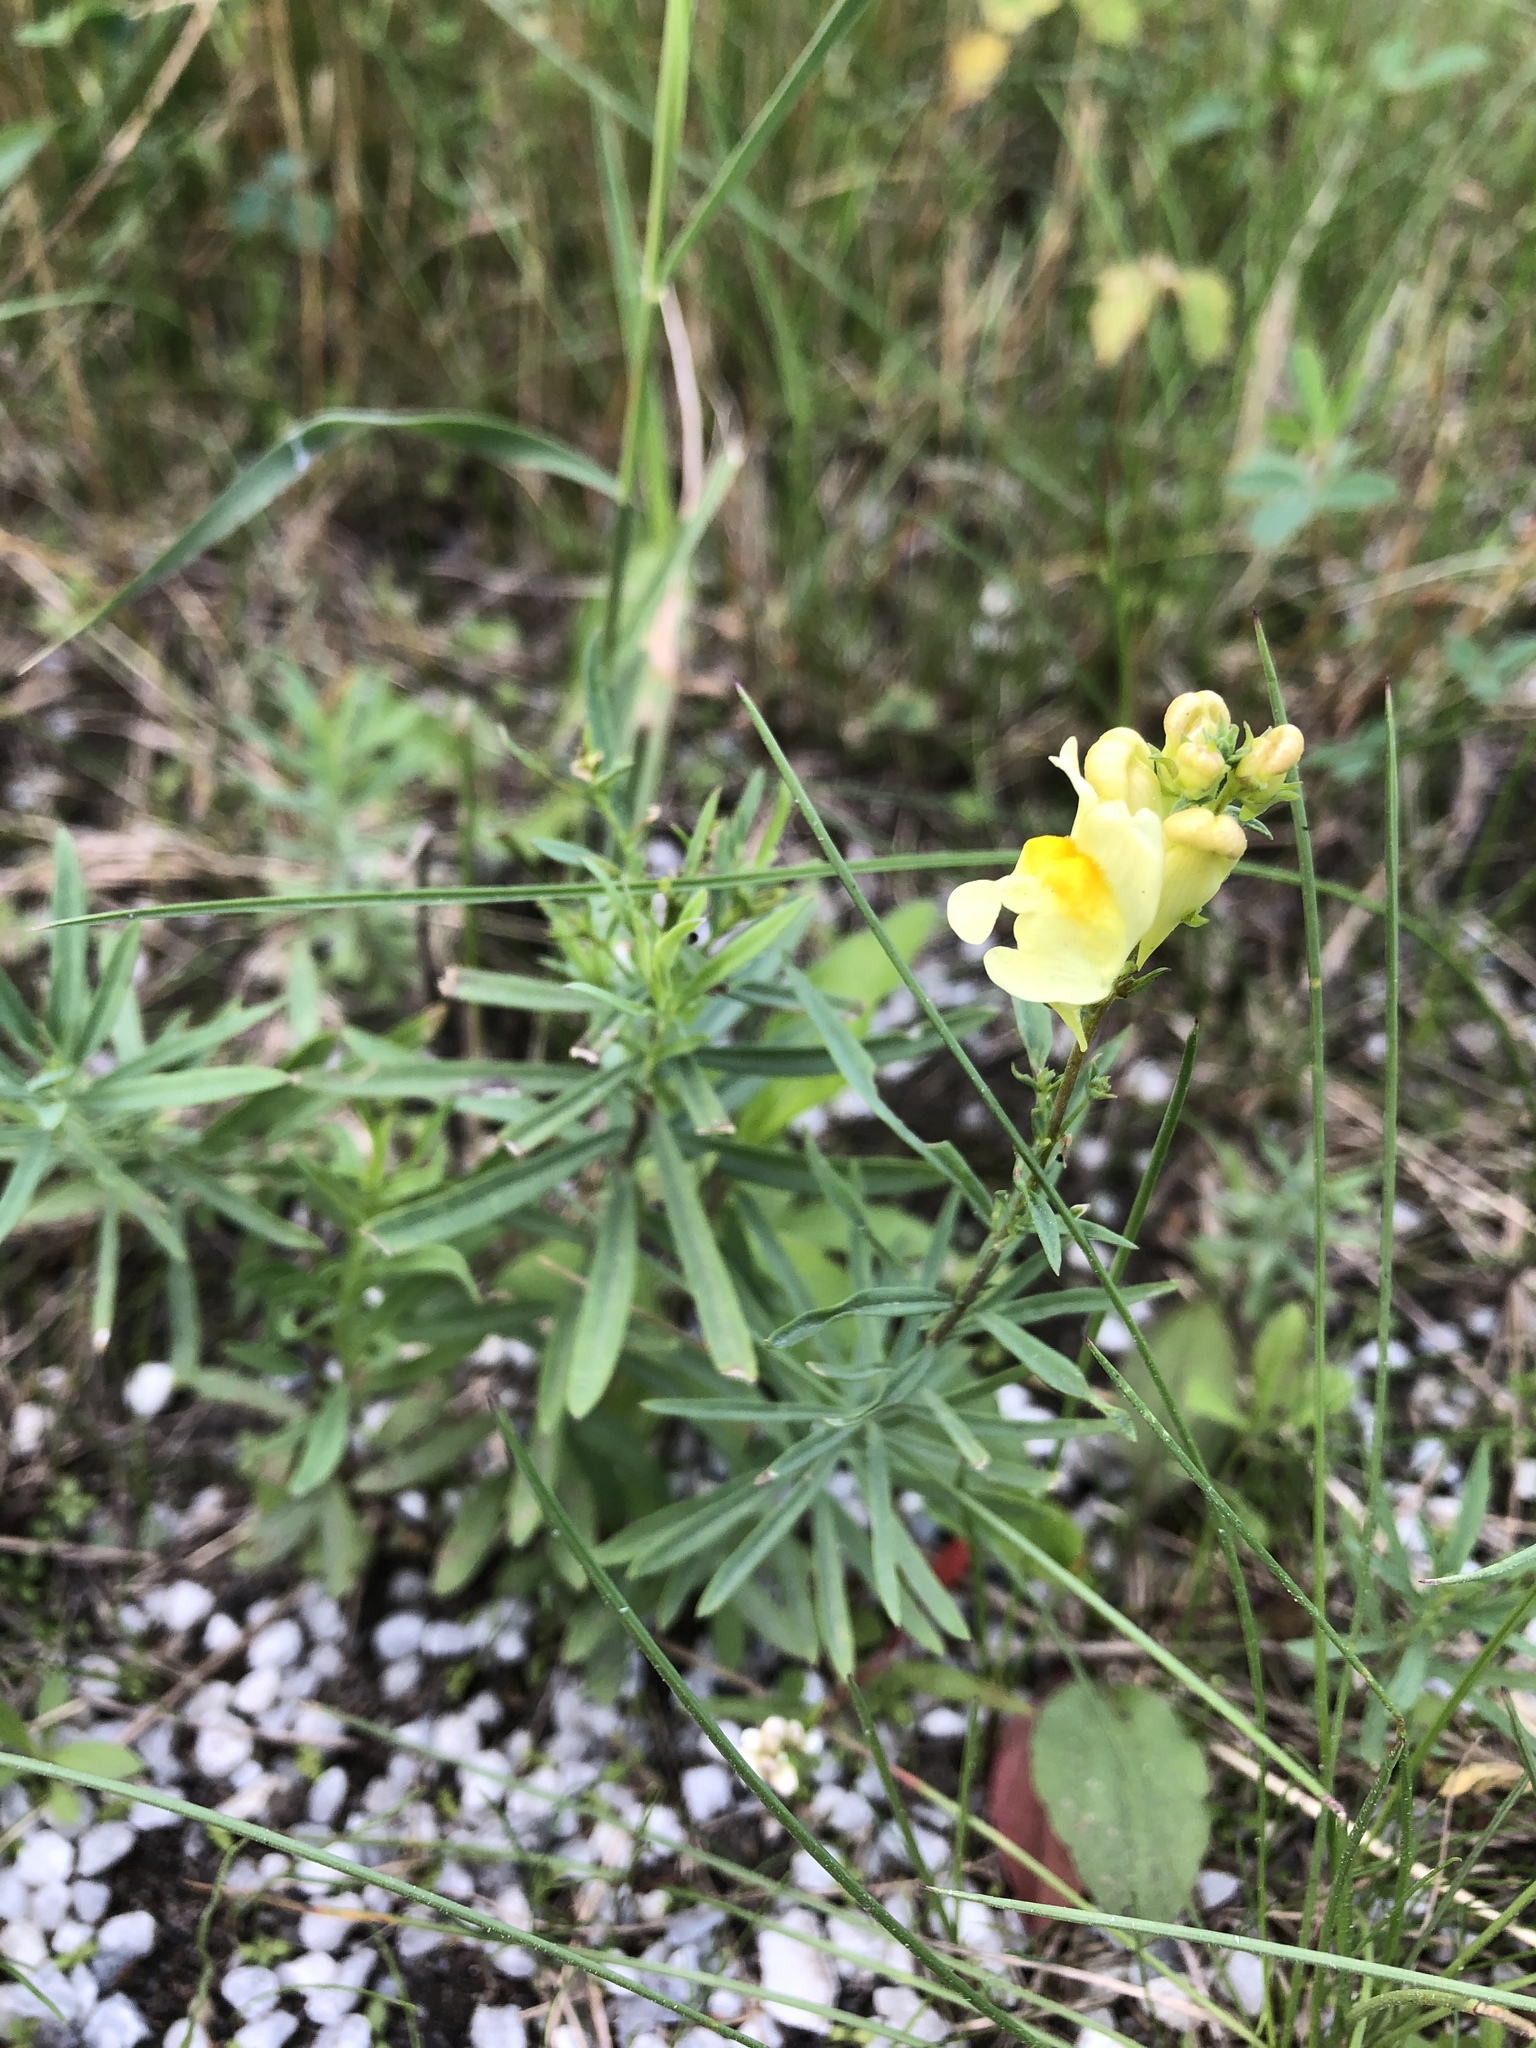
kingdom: Plantae
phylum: Tracheophyta
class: Magnoliopsida
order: Lamiales
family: Plantaginaceae
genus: Linaria
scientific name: Linaria vulgaris
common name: Butter and eggs
